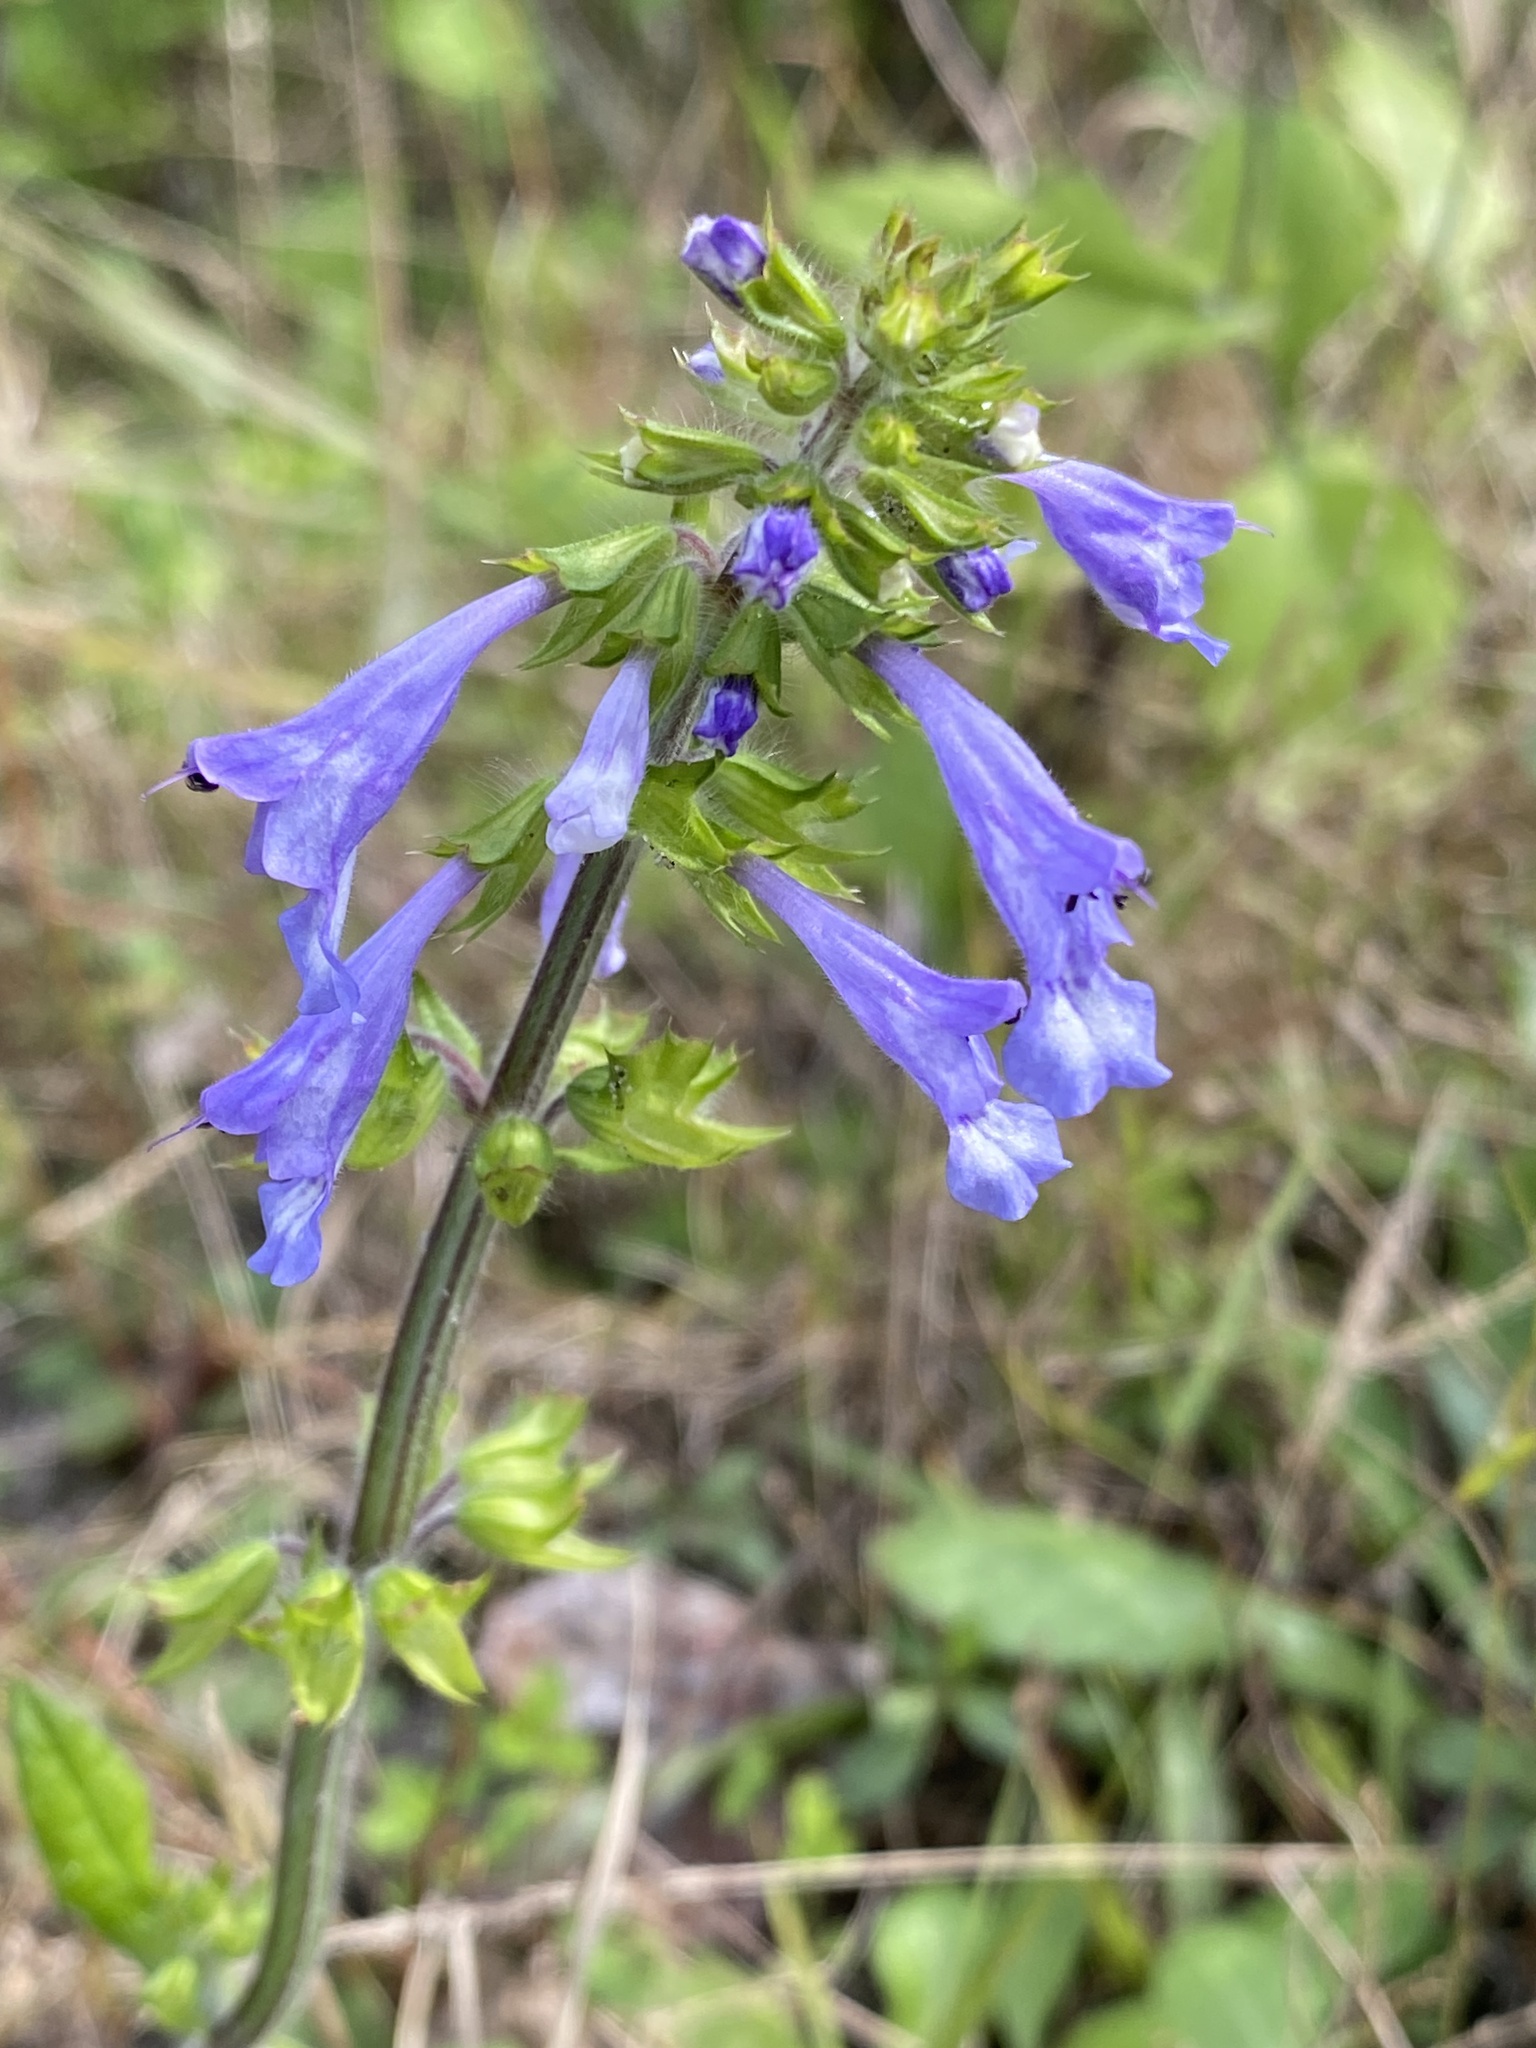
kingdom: Plantae
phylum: Tracheophyta
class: Magnoliopsida
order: Lamiales
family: Lamiaceae
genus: Salvia
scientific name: Salvia lyrata
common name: Cancerweed
